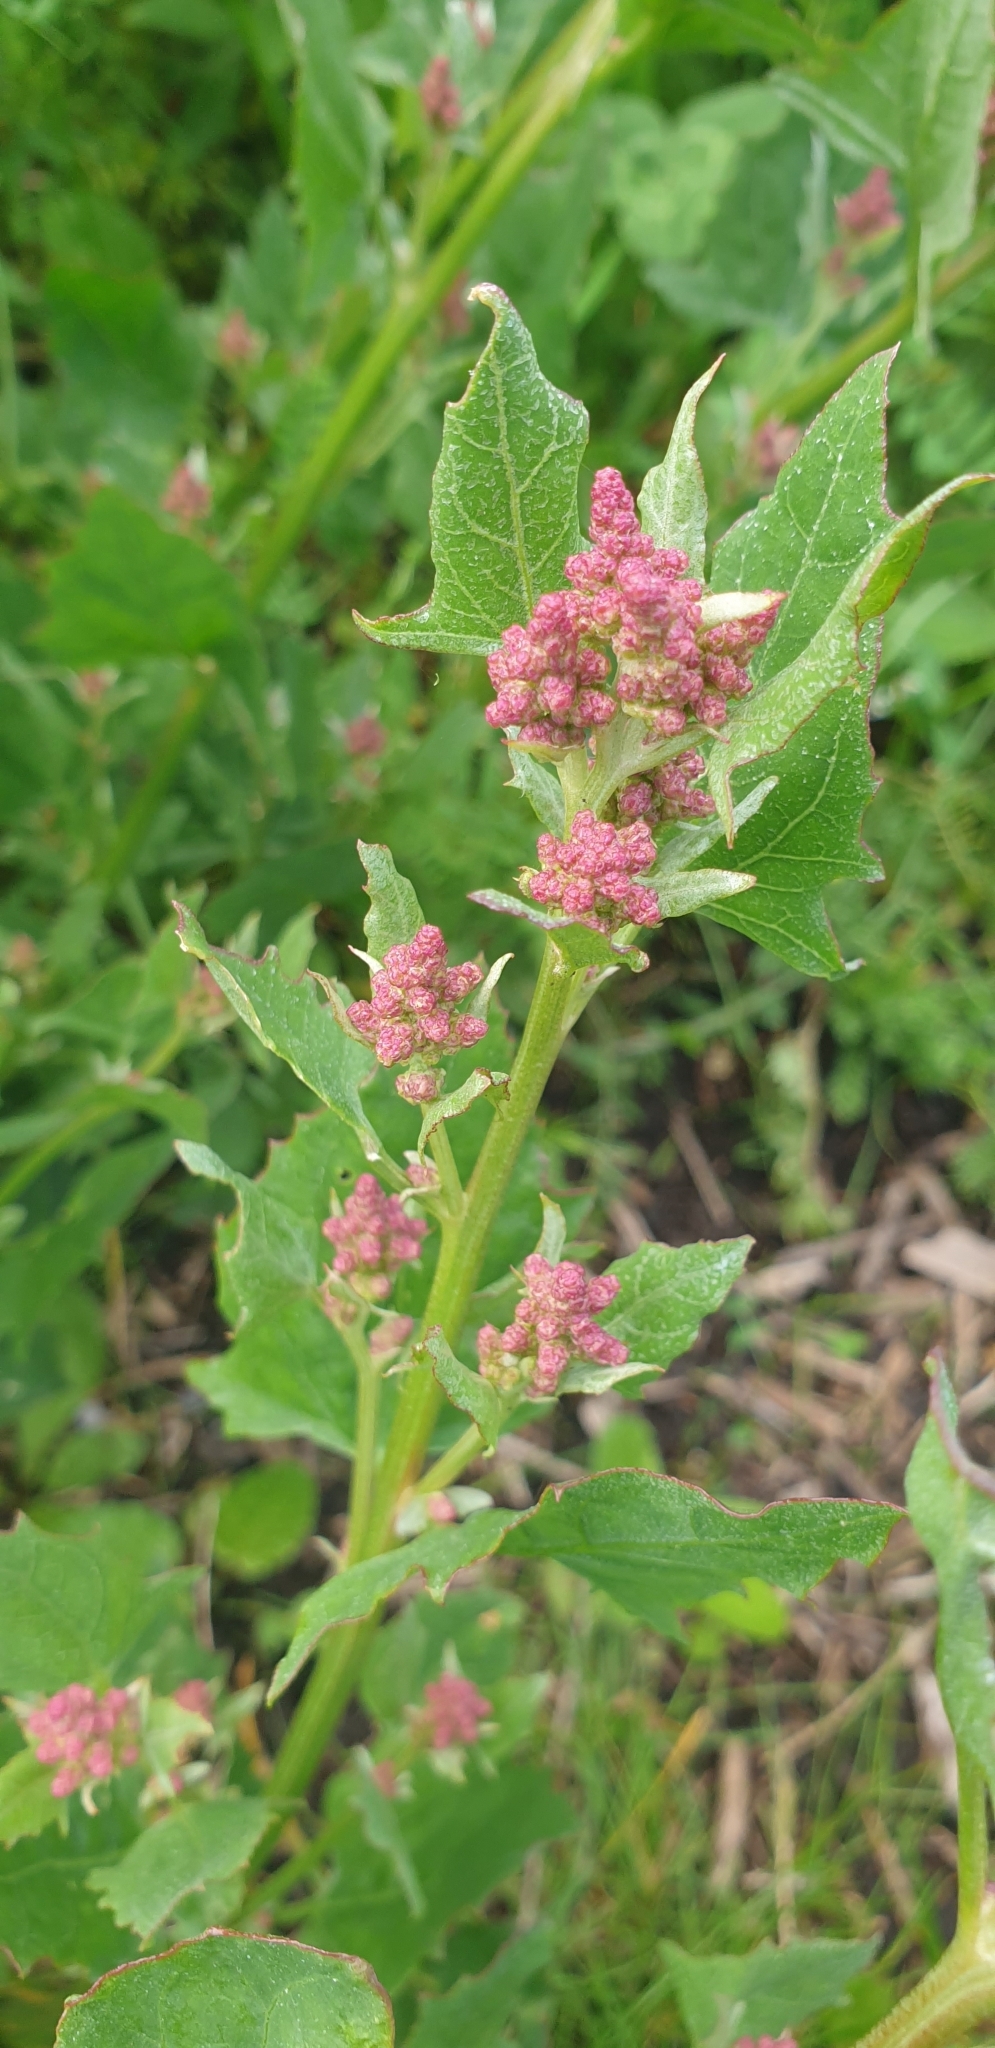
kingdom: Plantae
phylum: Tracheophyta
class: Magnoliopsida
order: Caryophyllales
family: Amaranthaceae
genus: Atriplex
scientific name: Atriplex prostrata
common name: Spear-leaved orache
